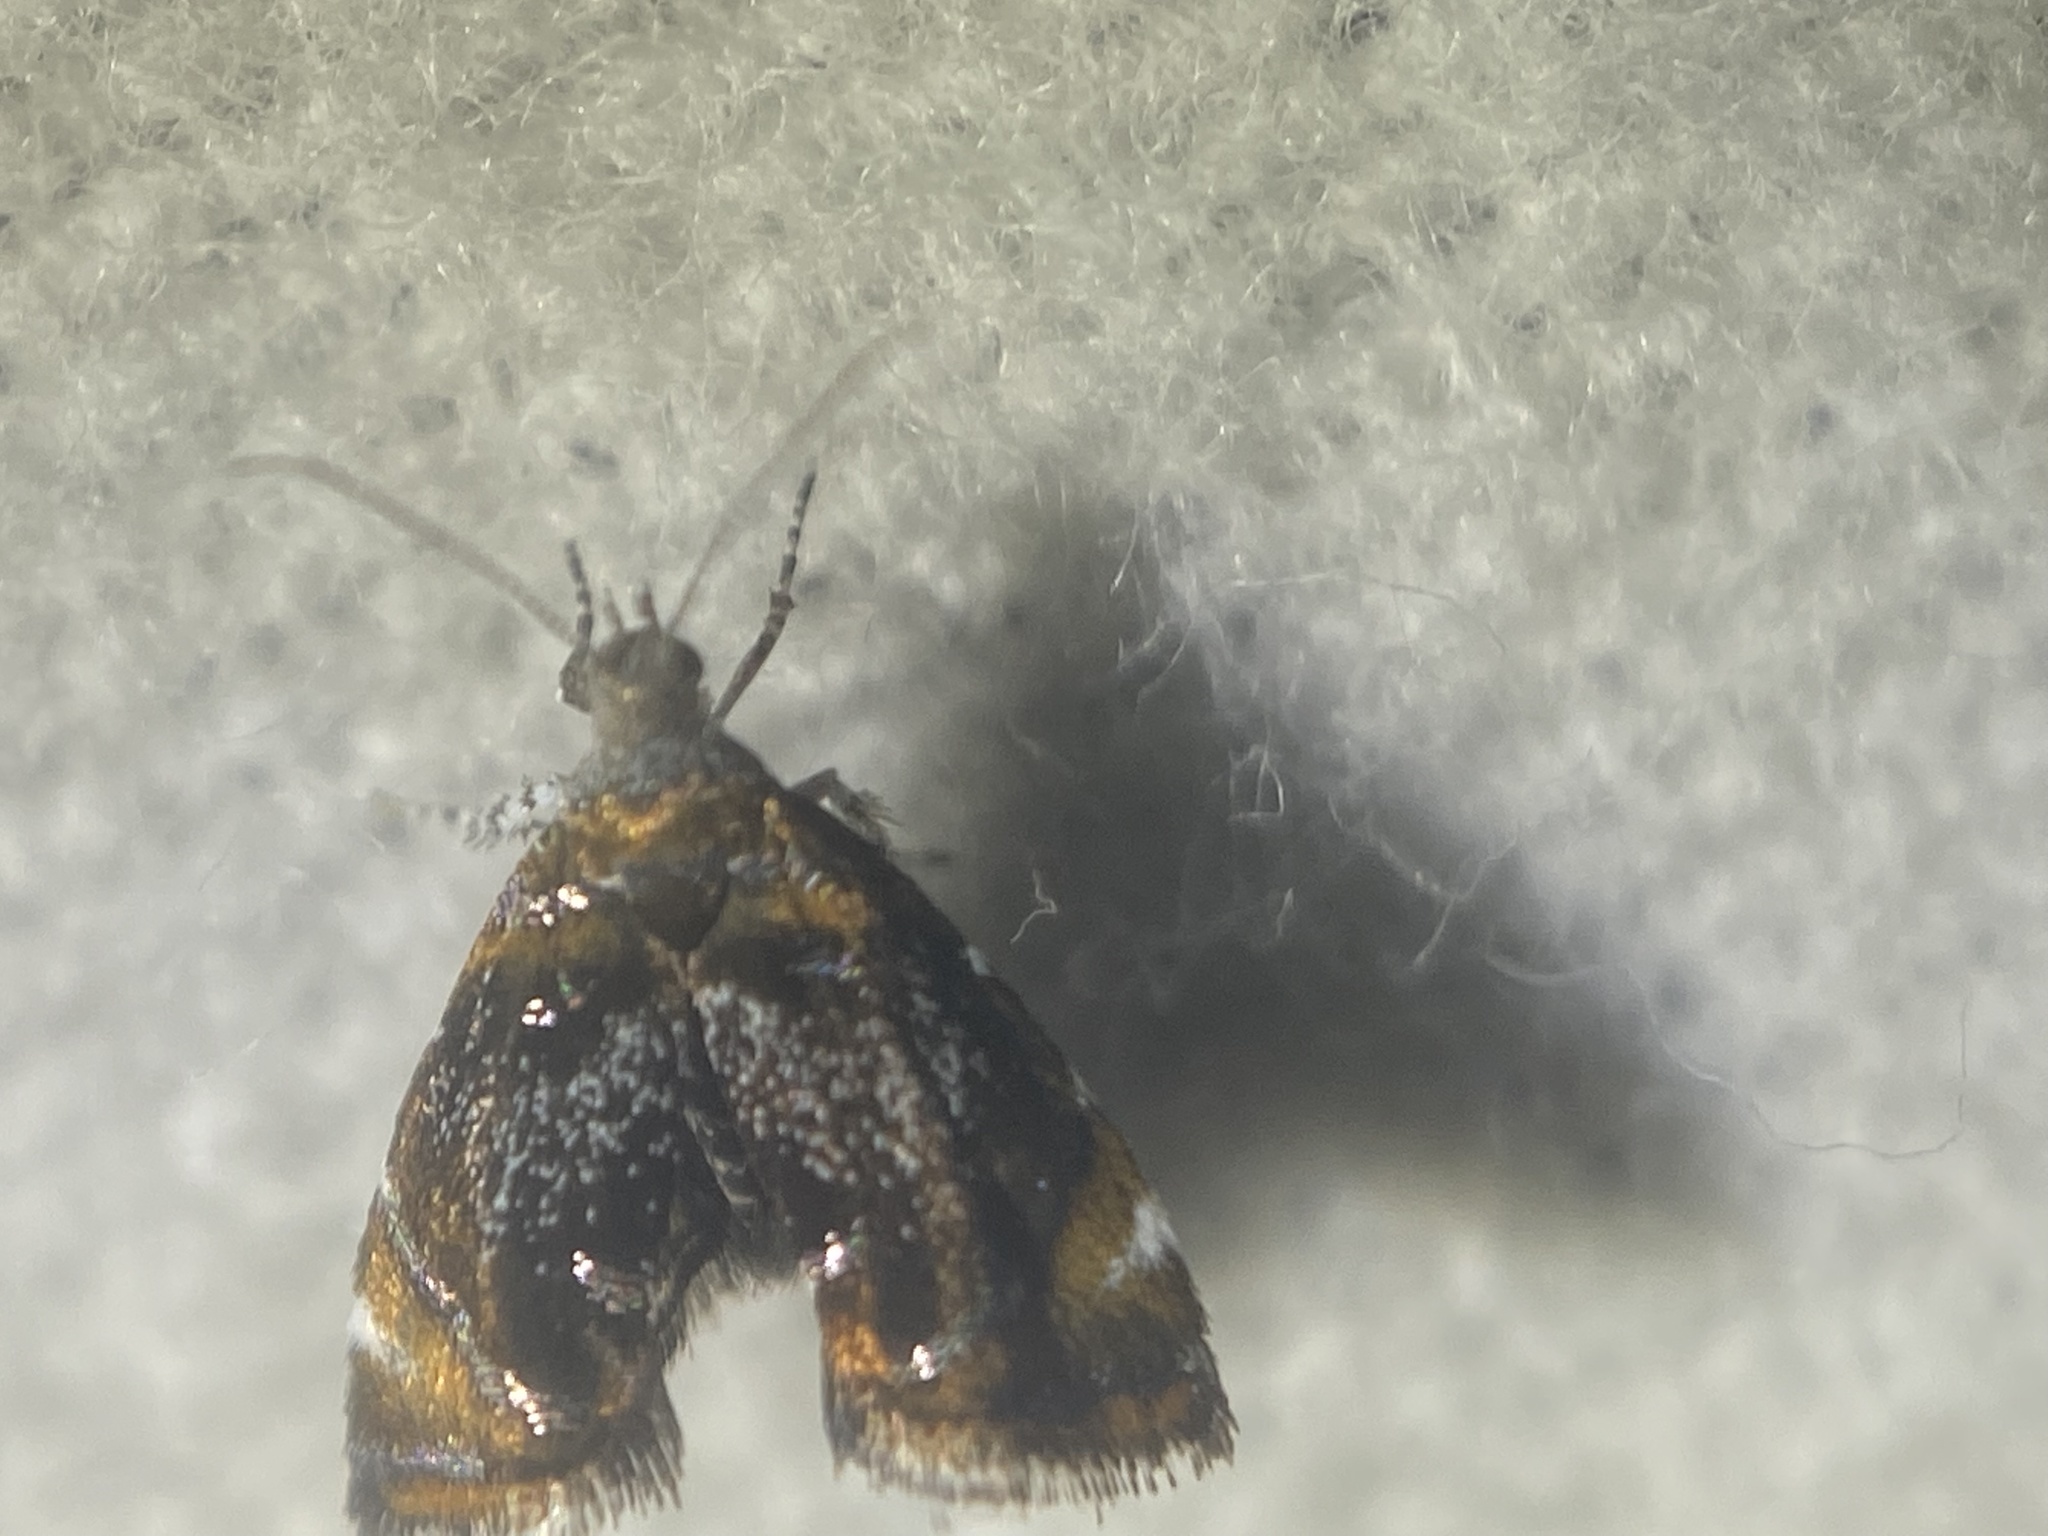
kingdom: Animalia
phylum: Arthropoda
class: Insecta
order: Lepidoptera
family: Choreutidae
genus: Prochoreutis
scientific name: Prochoreutis inflatella
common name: Skullcap skeletonizer moth
